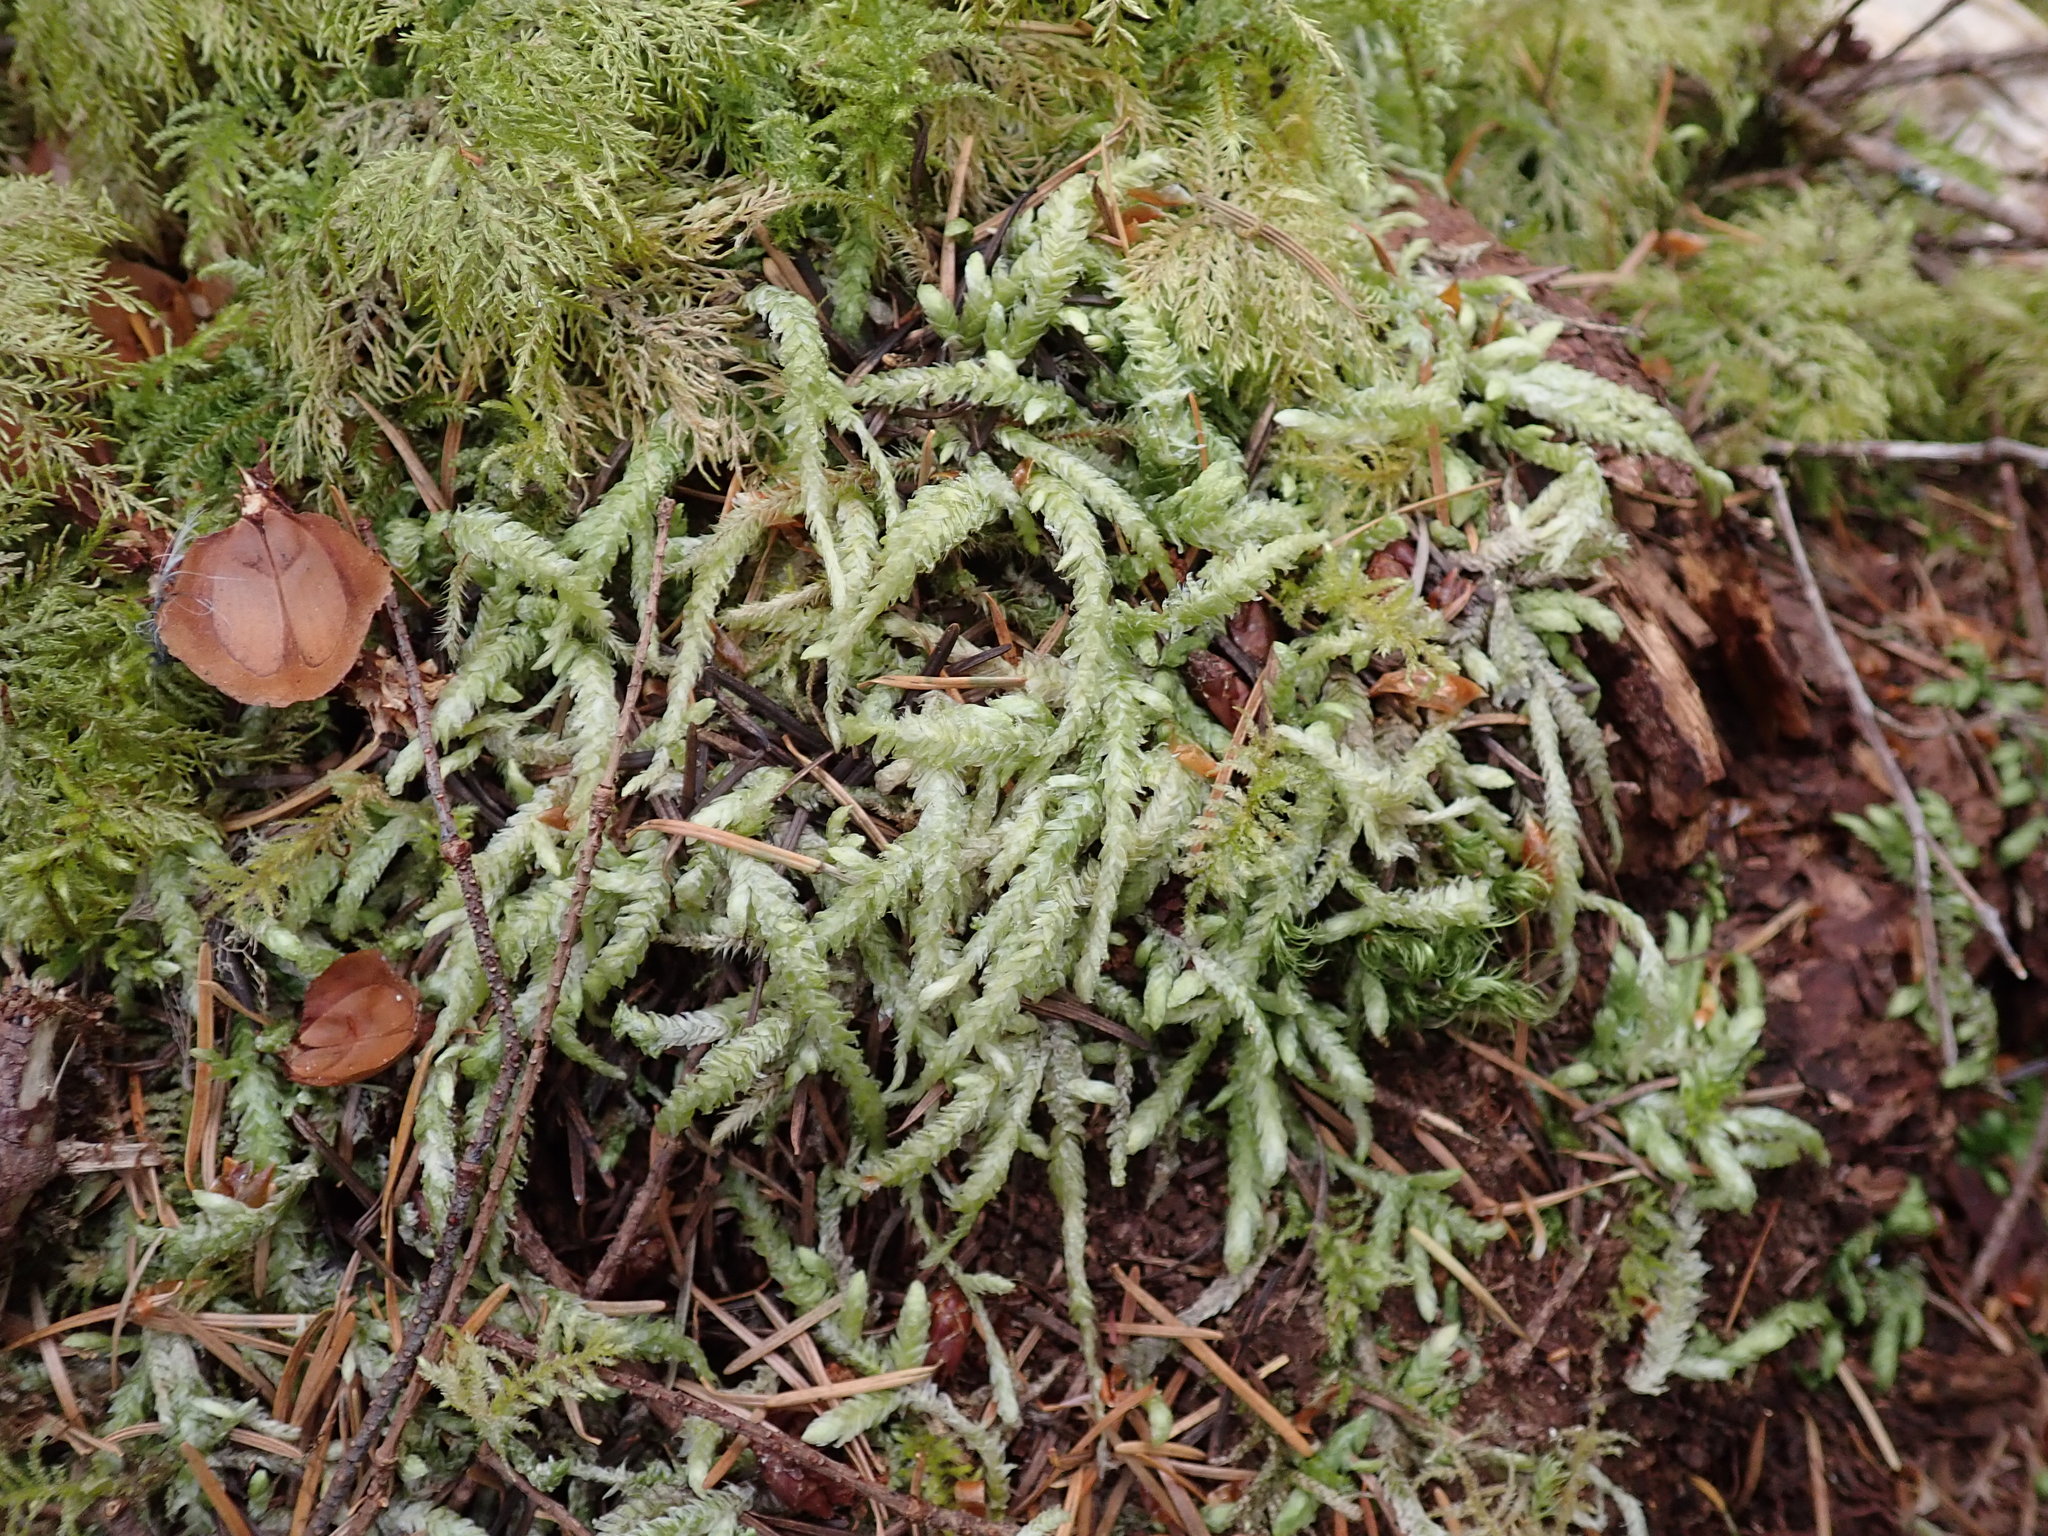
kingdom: Plantae
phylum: Bryophyta
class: Bryopsida
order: Hypnales
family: Plagiotheciaceae
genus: Plagiothecium
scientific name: Plagiothecium undulatum
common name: Waved silk-moss
